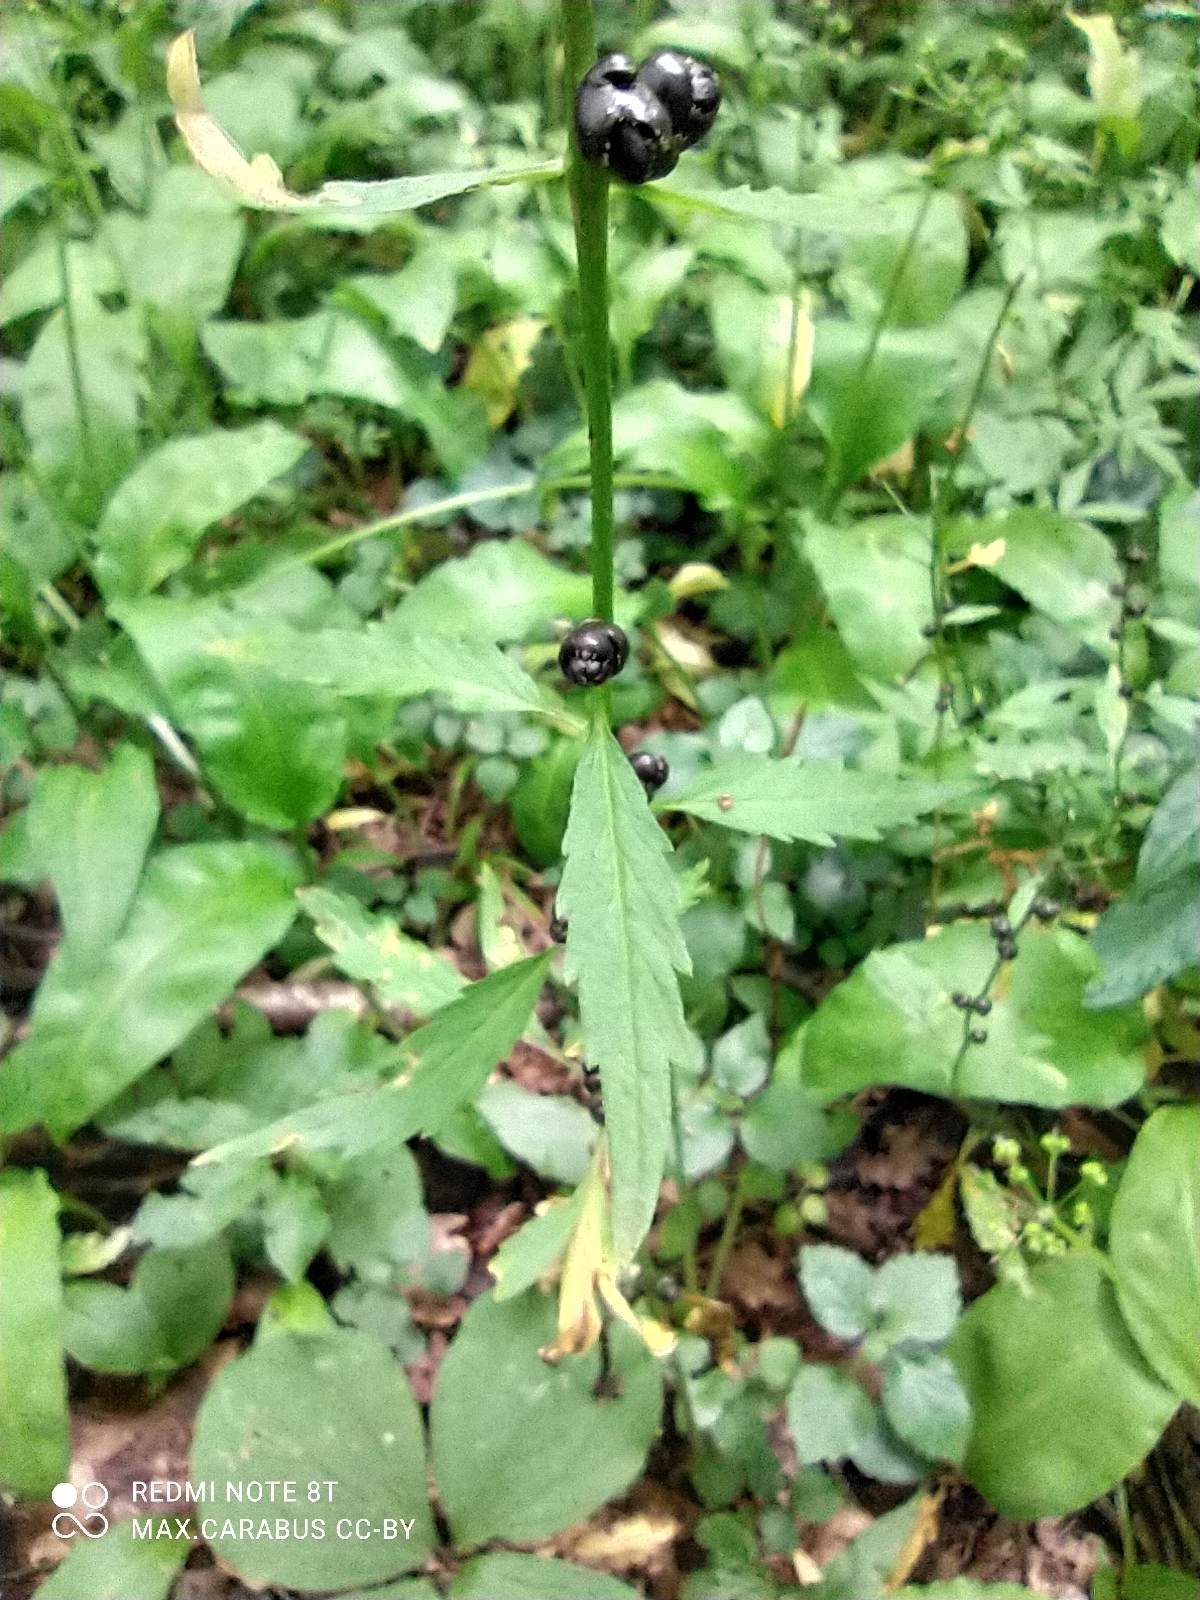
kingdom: Plantae
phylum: Tracheophyta
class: Magnoliopsida
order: Brassicales
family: Brassicaceae
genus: Cardamine
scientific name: Cardamine bulbifera
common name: Coralroot bittercress
